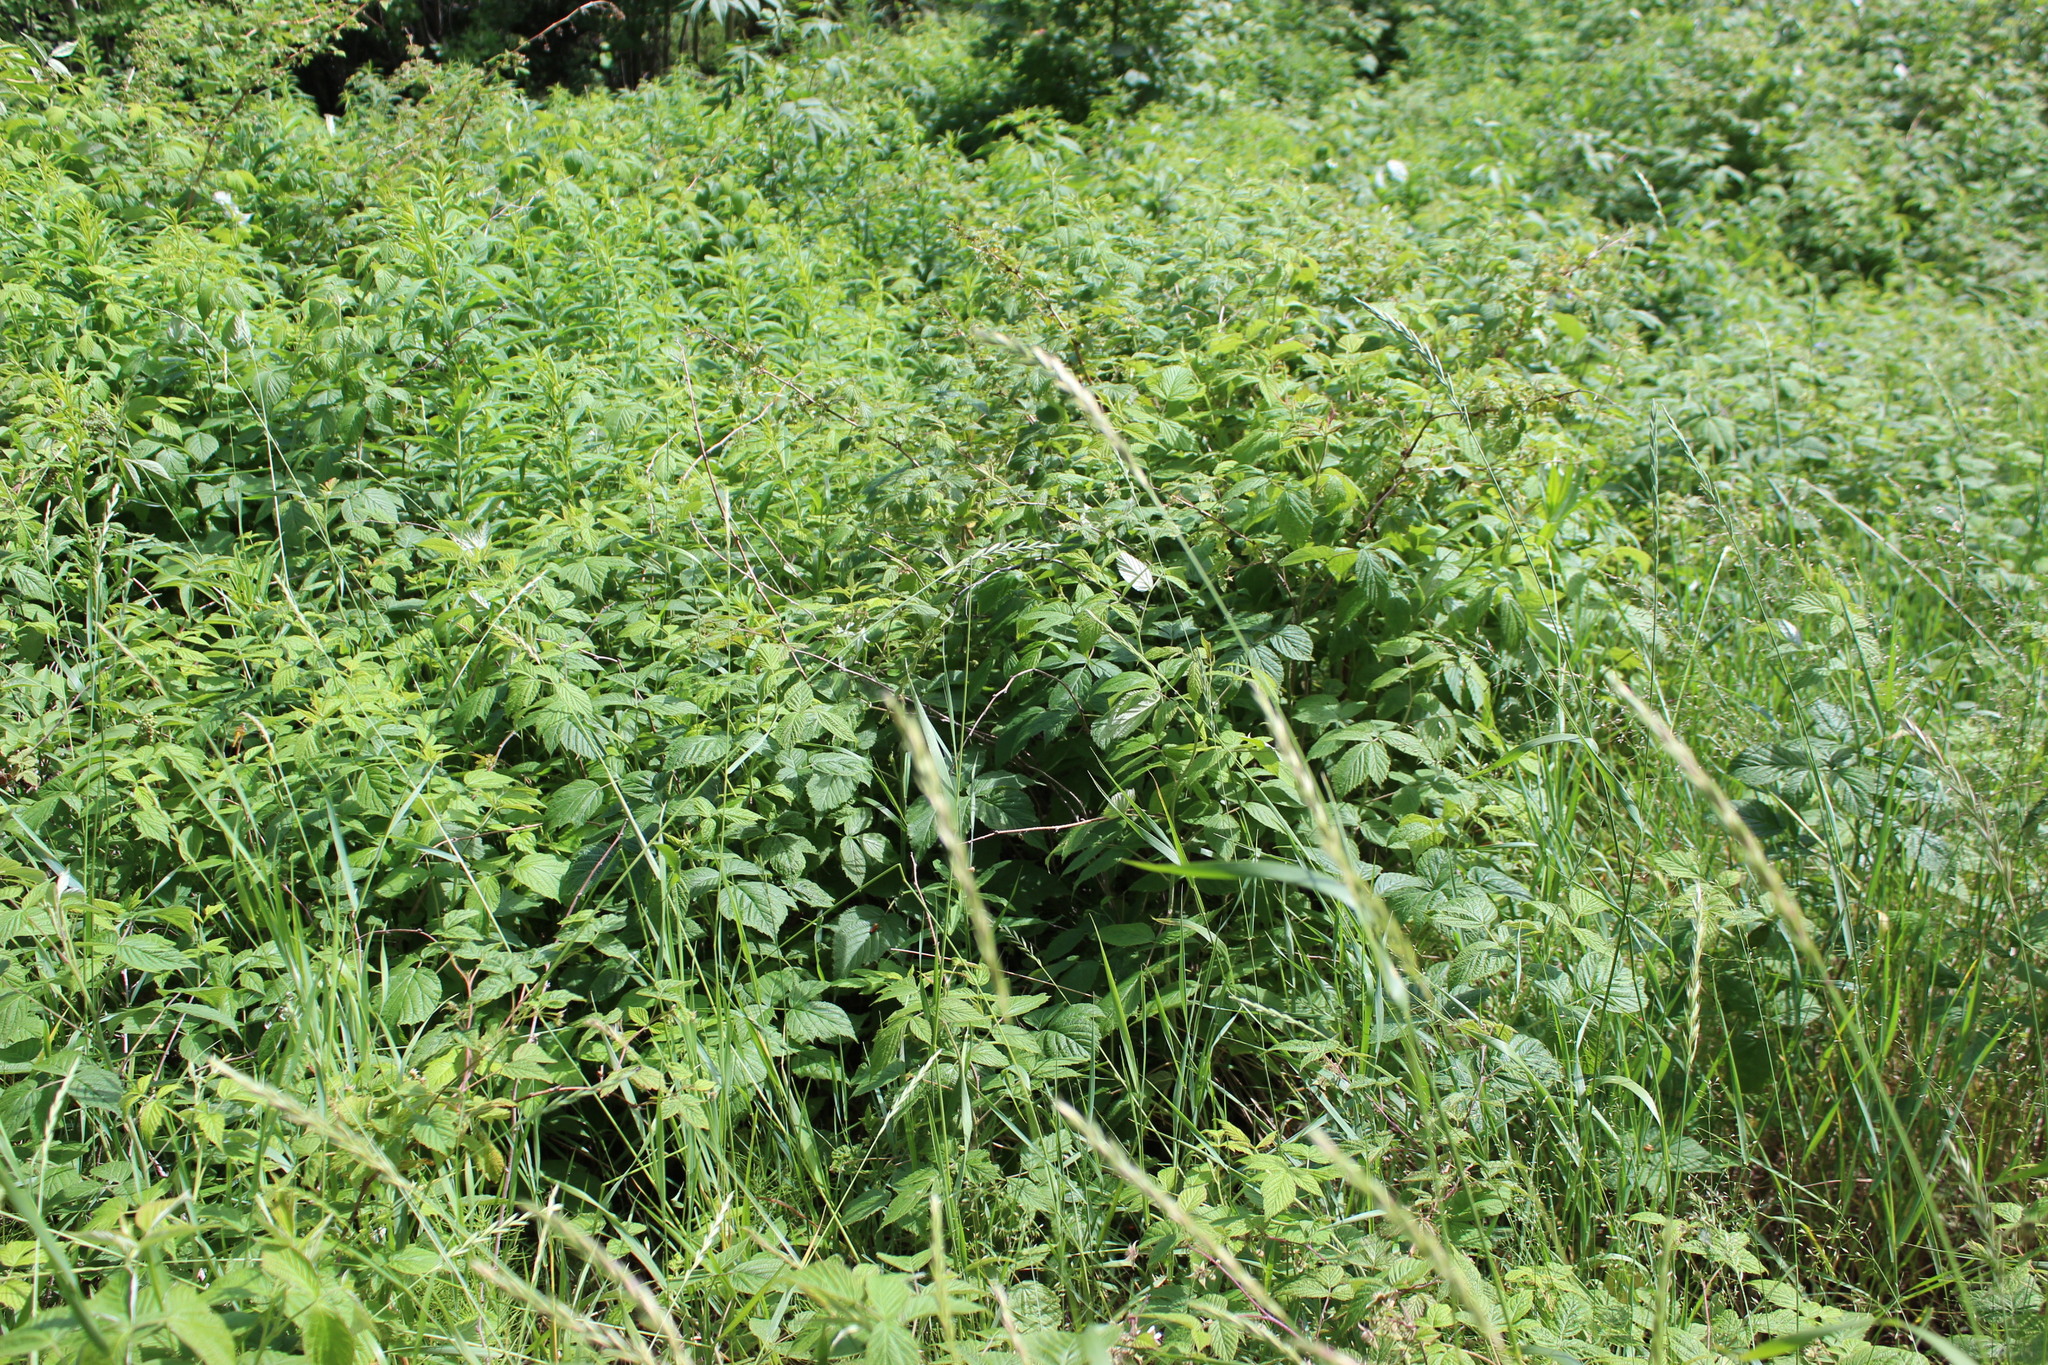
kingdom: Plantae
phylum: Tracheophyta
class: Magnoliopsida
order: Rosales
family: Rosaceae
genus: Rubus
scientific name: Rubus idaeus
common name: Raspberry
